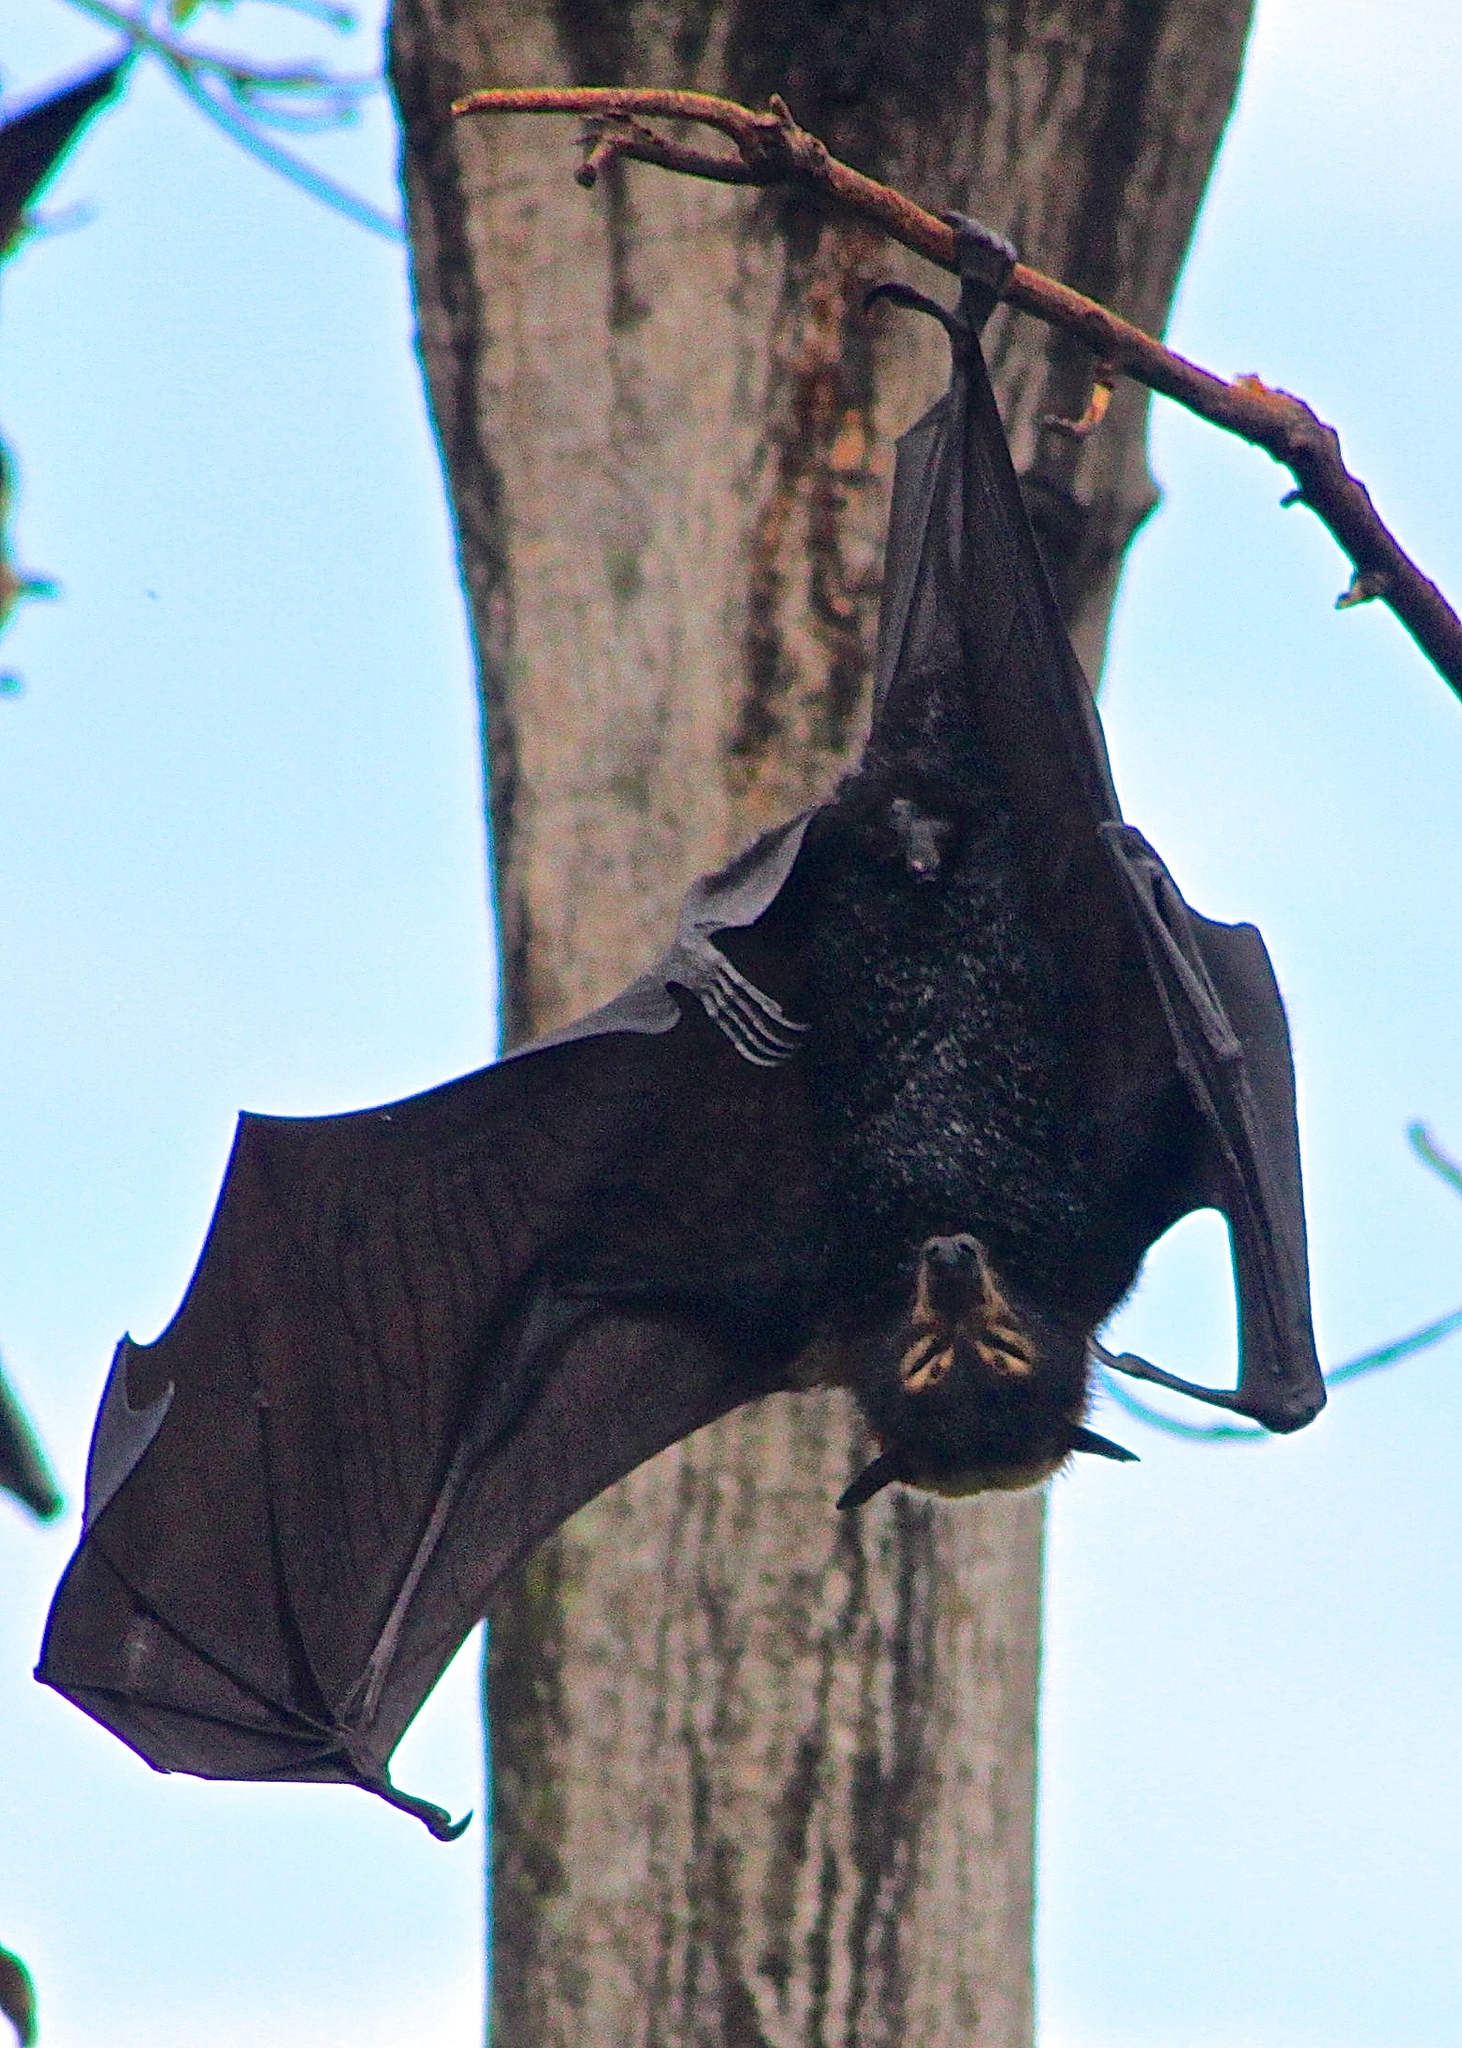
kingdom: Animalia
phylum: Chordata
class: Mammalia
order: Chiroptera
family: Pteropodidae
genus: Pteropus
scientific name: Pteropus conspicillatus
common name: Spectacled flying fox
